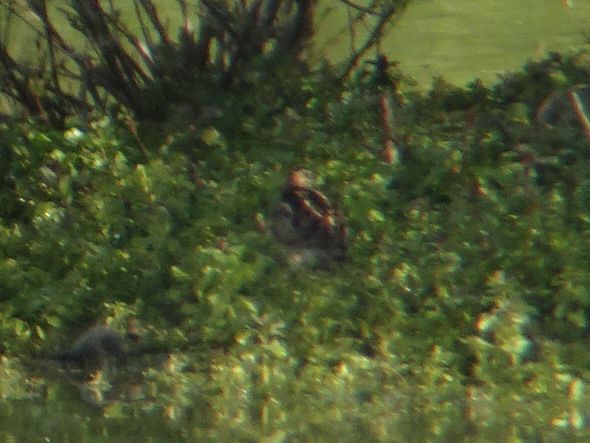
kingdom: Animalia
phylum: Chordata
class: Aves
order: Charadriiformes
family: Scolopacidae
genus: Gallinago
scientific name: Gallinago gallinago
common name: Common snipe
